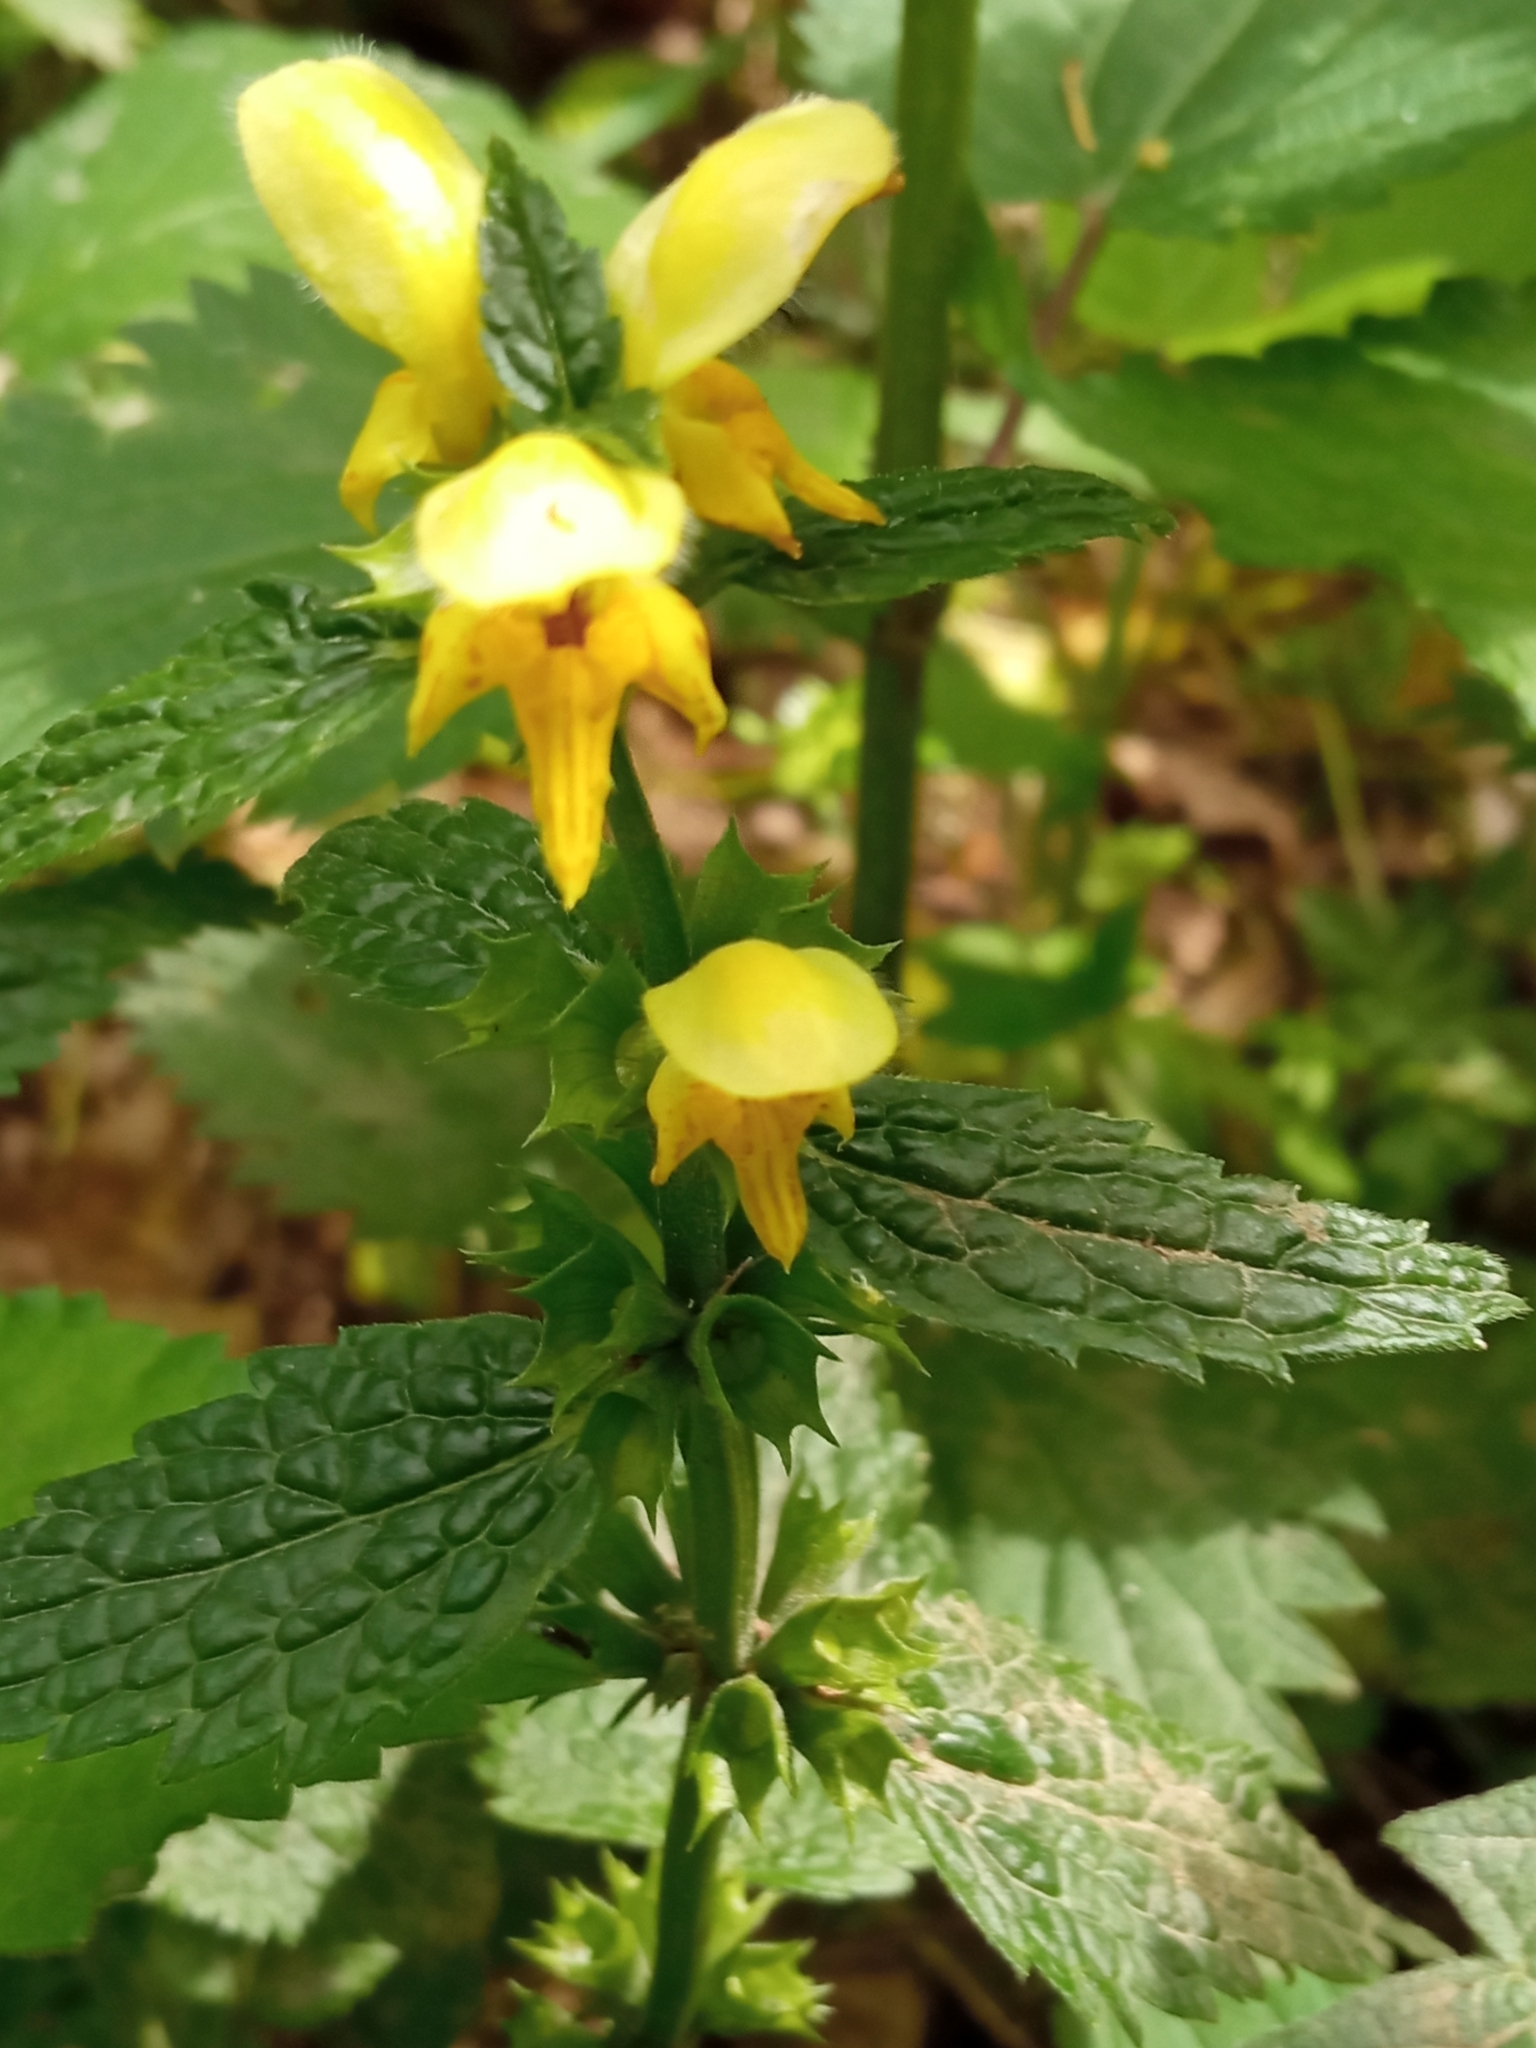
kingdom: Plantae
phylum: Tracheophyta
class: Magnoliopsida
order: Lamiales
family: Lamiaceae
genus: Lamium
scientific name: Lamium galeobdolon
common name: Yellow archangel
